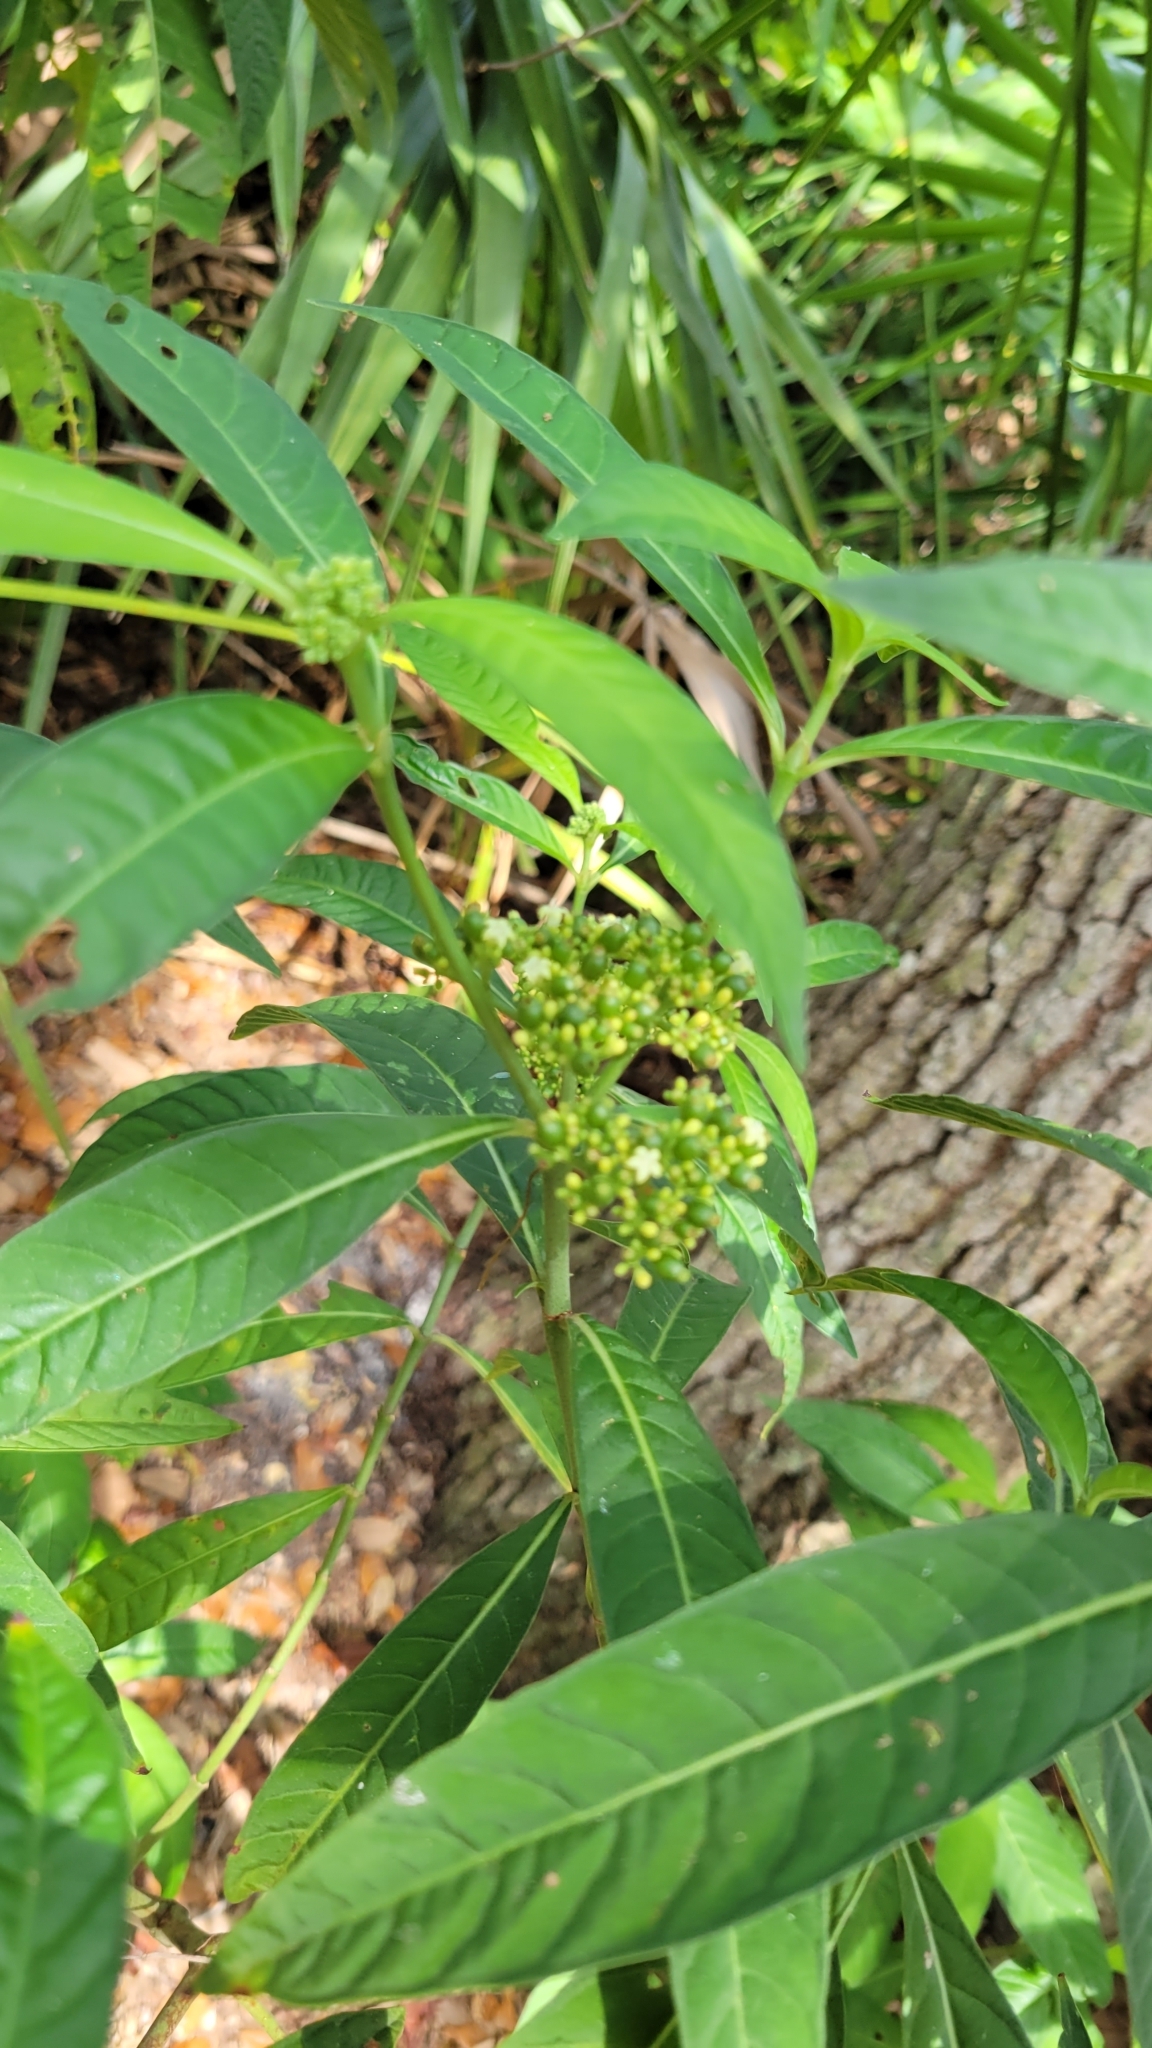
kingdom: Plantae
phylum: Tracheophyta
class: Magnoliopsida
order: Gentianales
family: Rubiaceae
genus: Psychotria
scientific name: Psychotria tenuifolia
